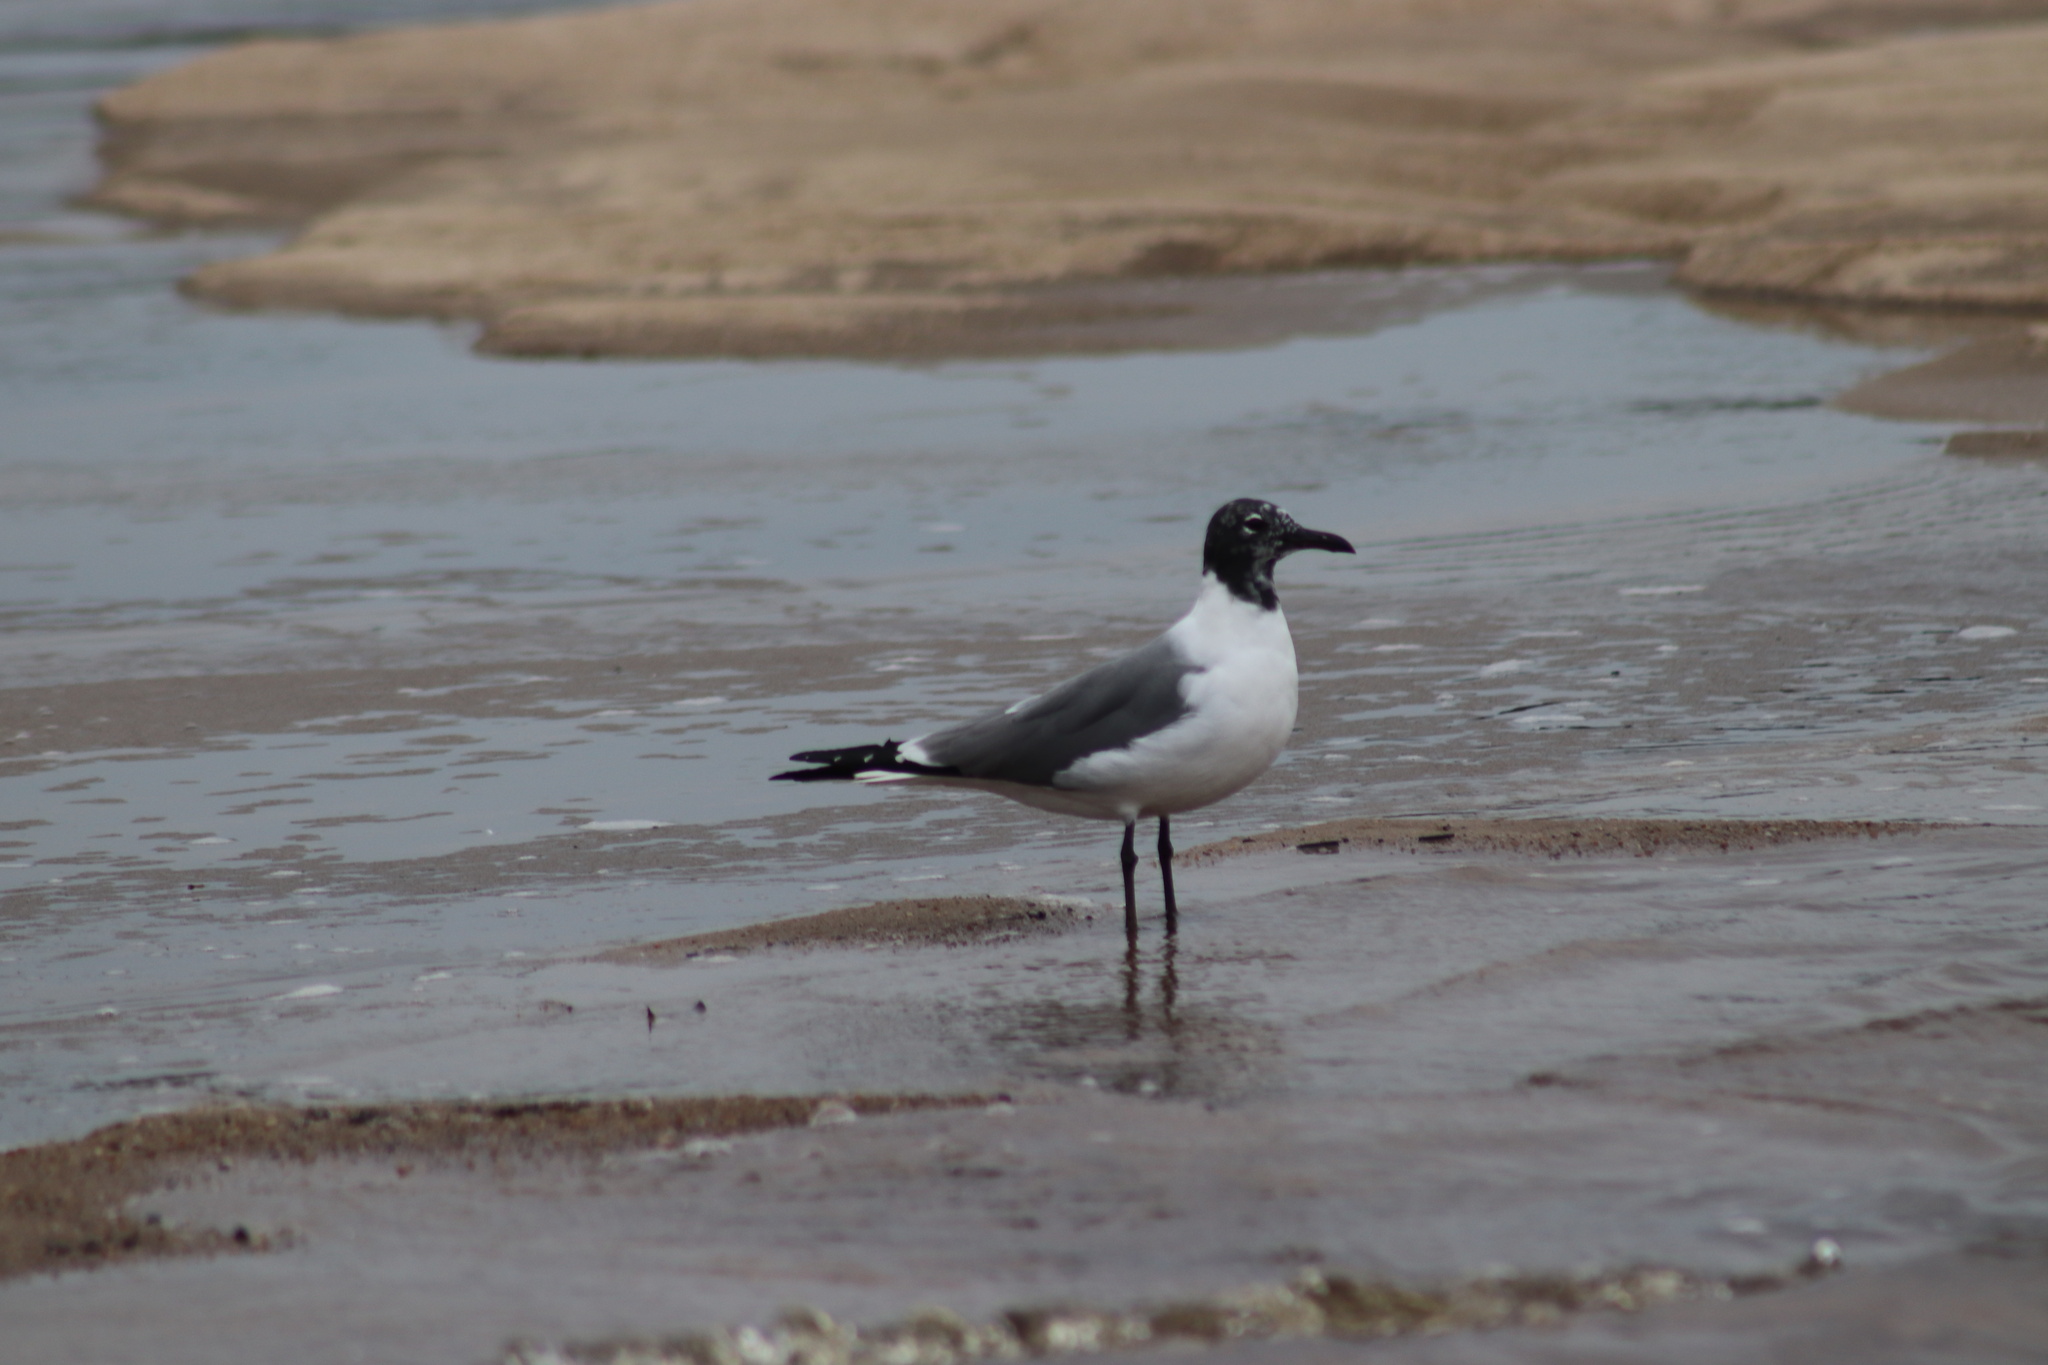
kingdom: Animalia
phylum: Chordata
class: Aves
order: Charadriiformes
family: Laridae
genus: Leucophaeus
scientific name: Leucophaeus atricilla
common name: Laughing gull
